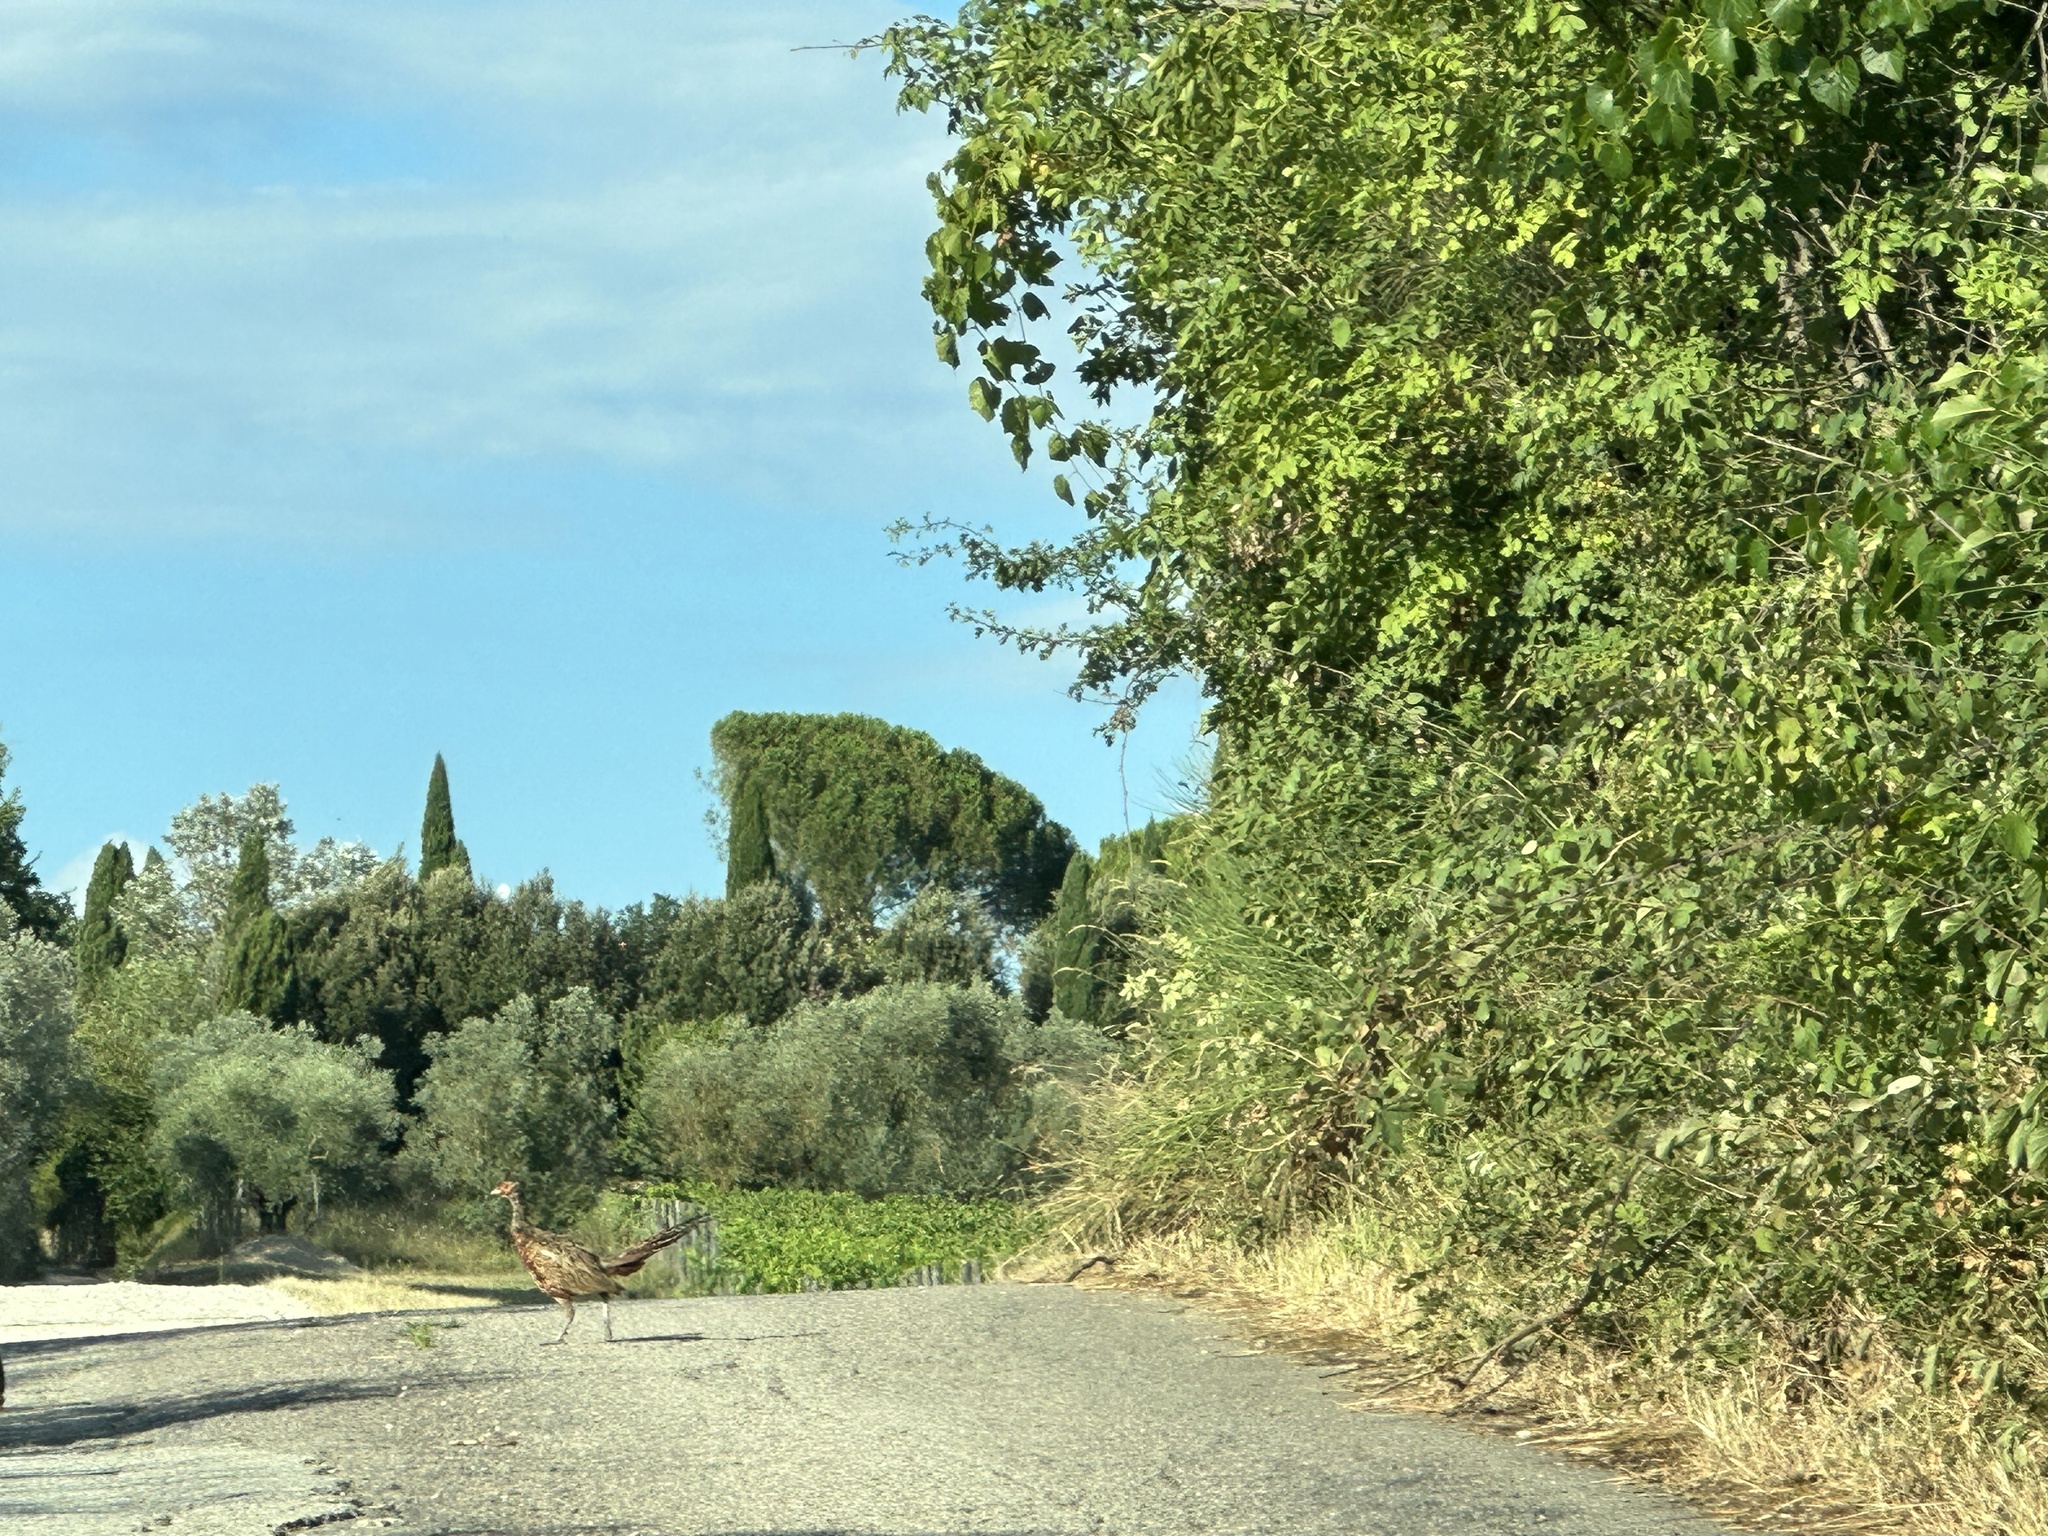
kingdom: Animalia
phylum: Chordata
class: Aves
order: Galliformes
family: Phasianidae
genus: Phasianus
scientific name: Phasianus colchicus
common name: Common pheasant
